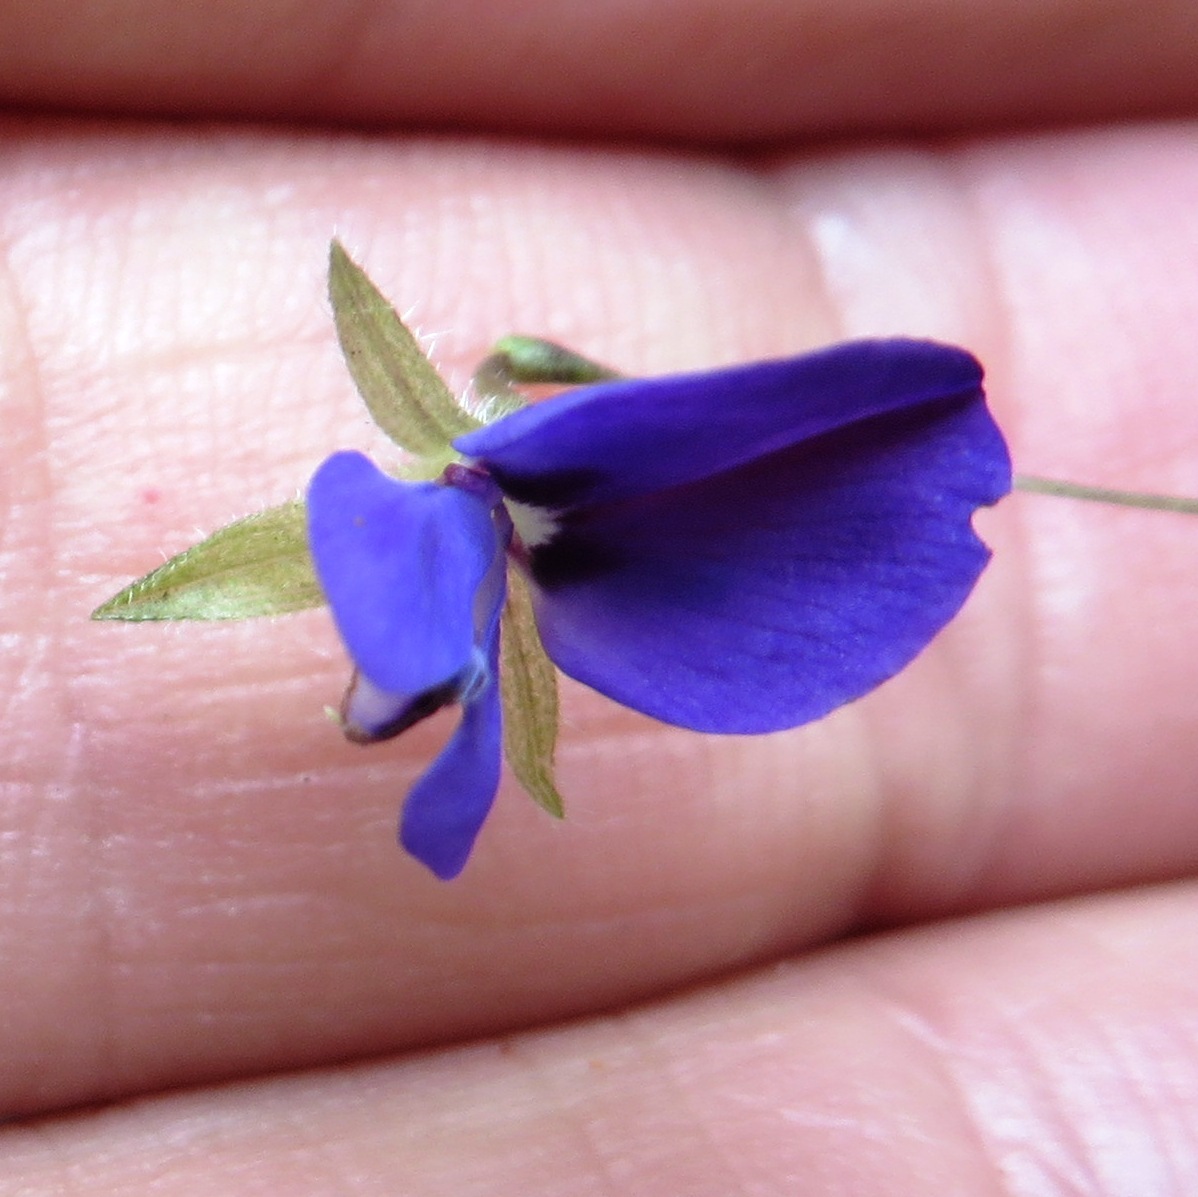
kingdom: Plantae
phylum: Tracheophyta
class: Magnoliopsida
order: Fabales
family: Fabaceae
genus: Psoralea
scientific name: Psoralea monophylla
